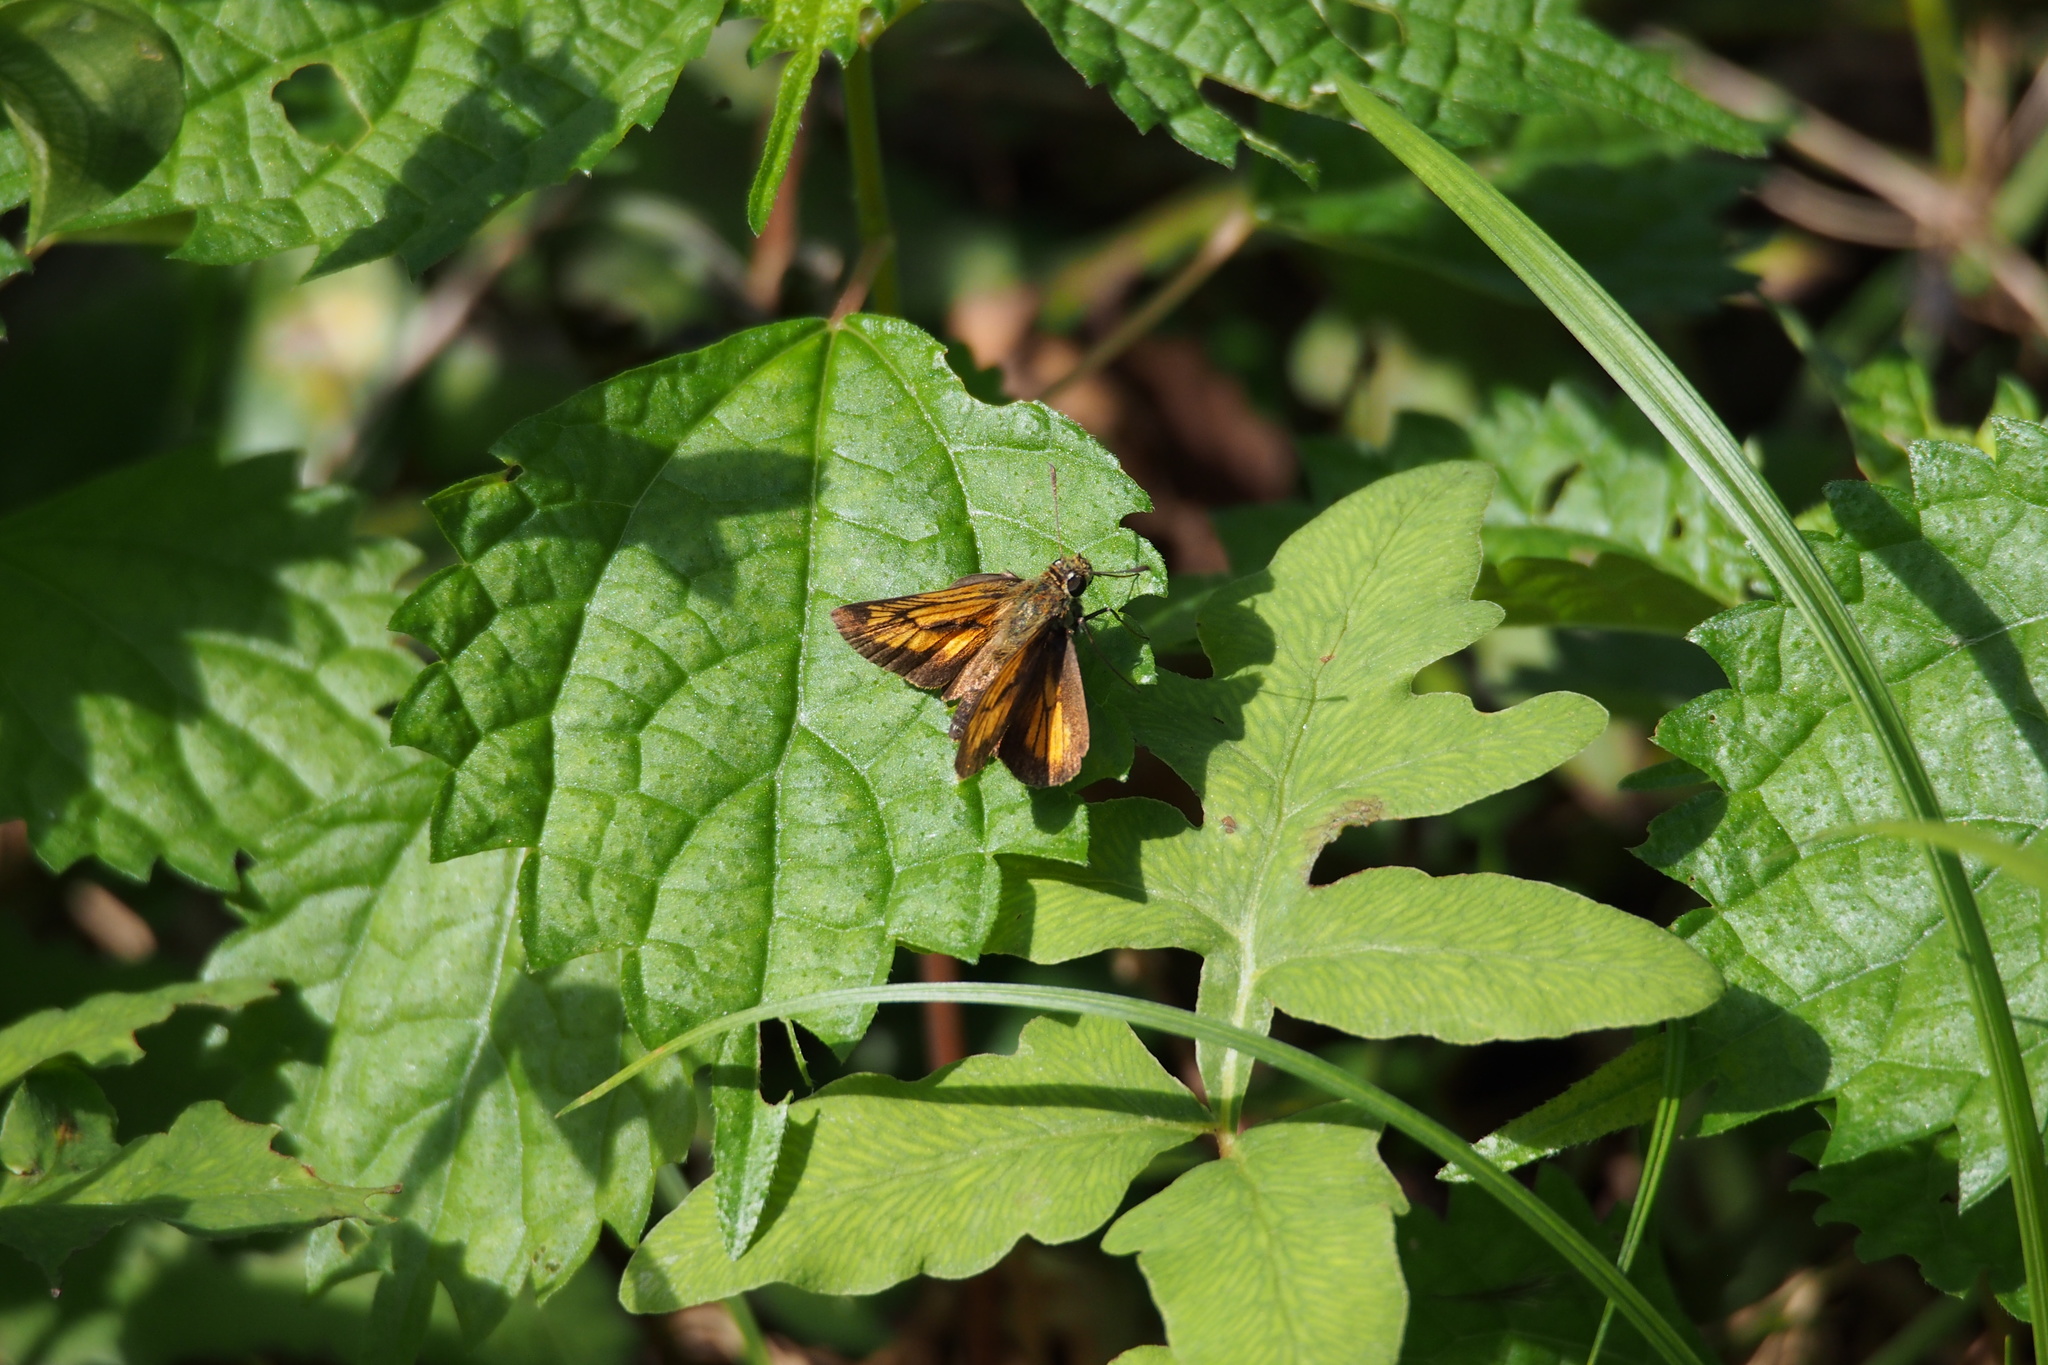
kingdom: Animalia
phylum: Arthropoda
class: Insecta
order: Lepidoptera
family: Hesperiidae
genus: Ochlodes
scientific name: Ochlodes ochracea
